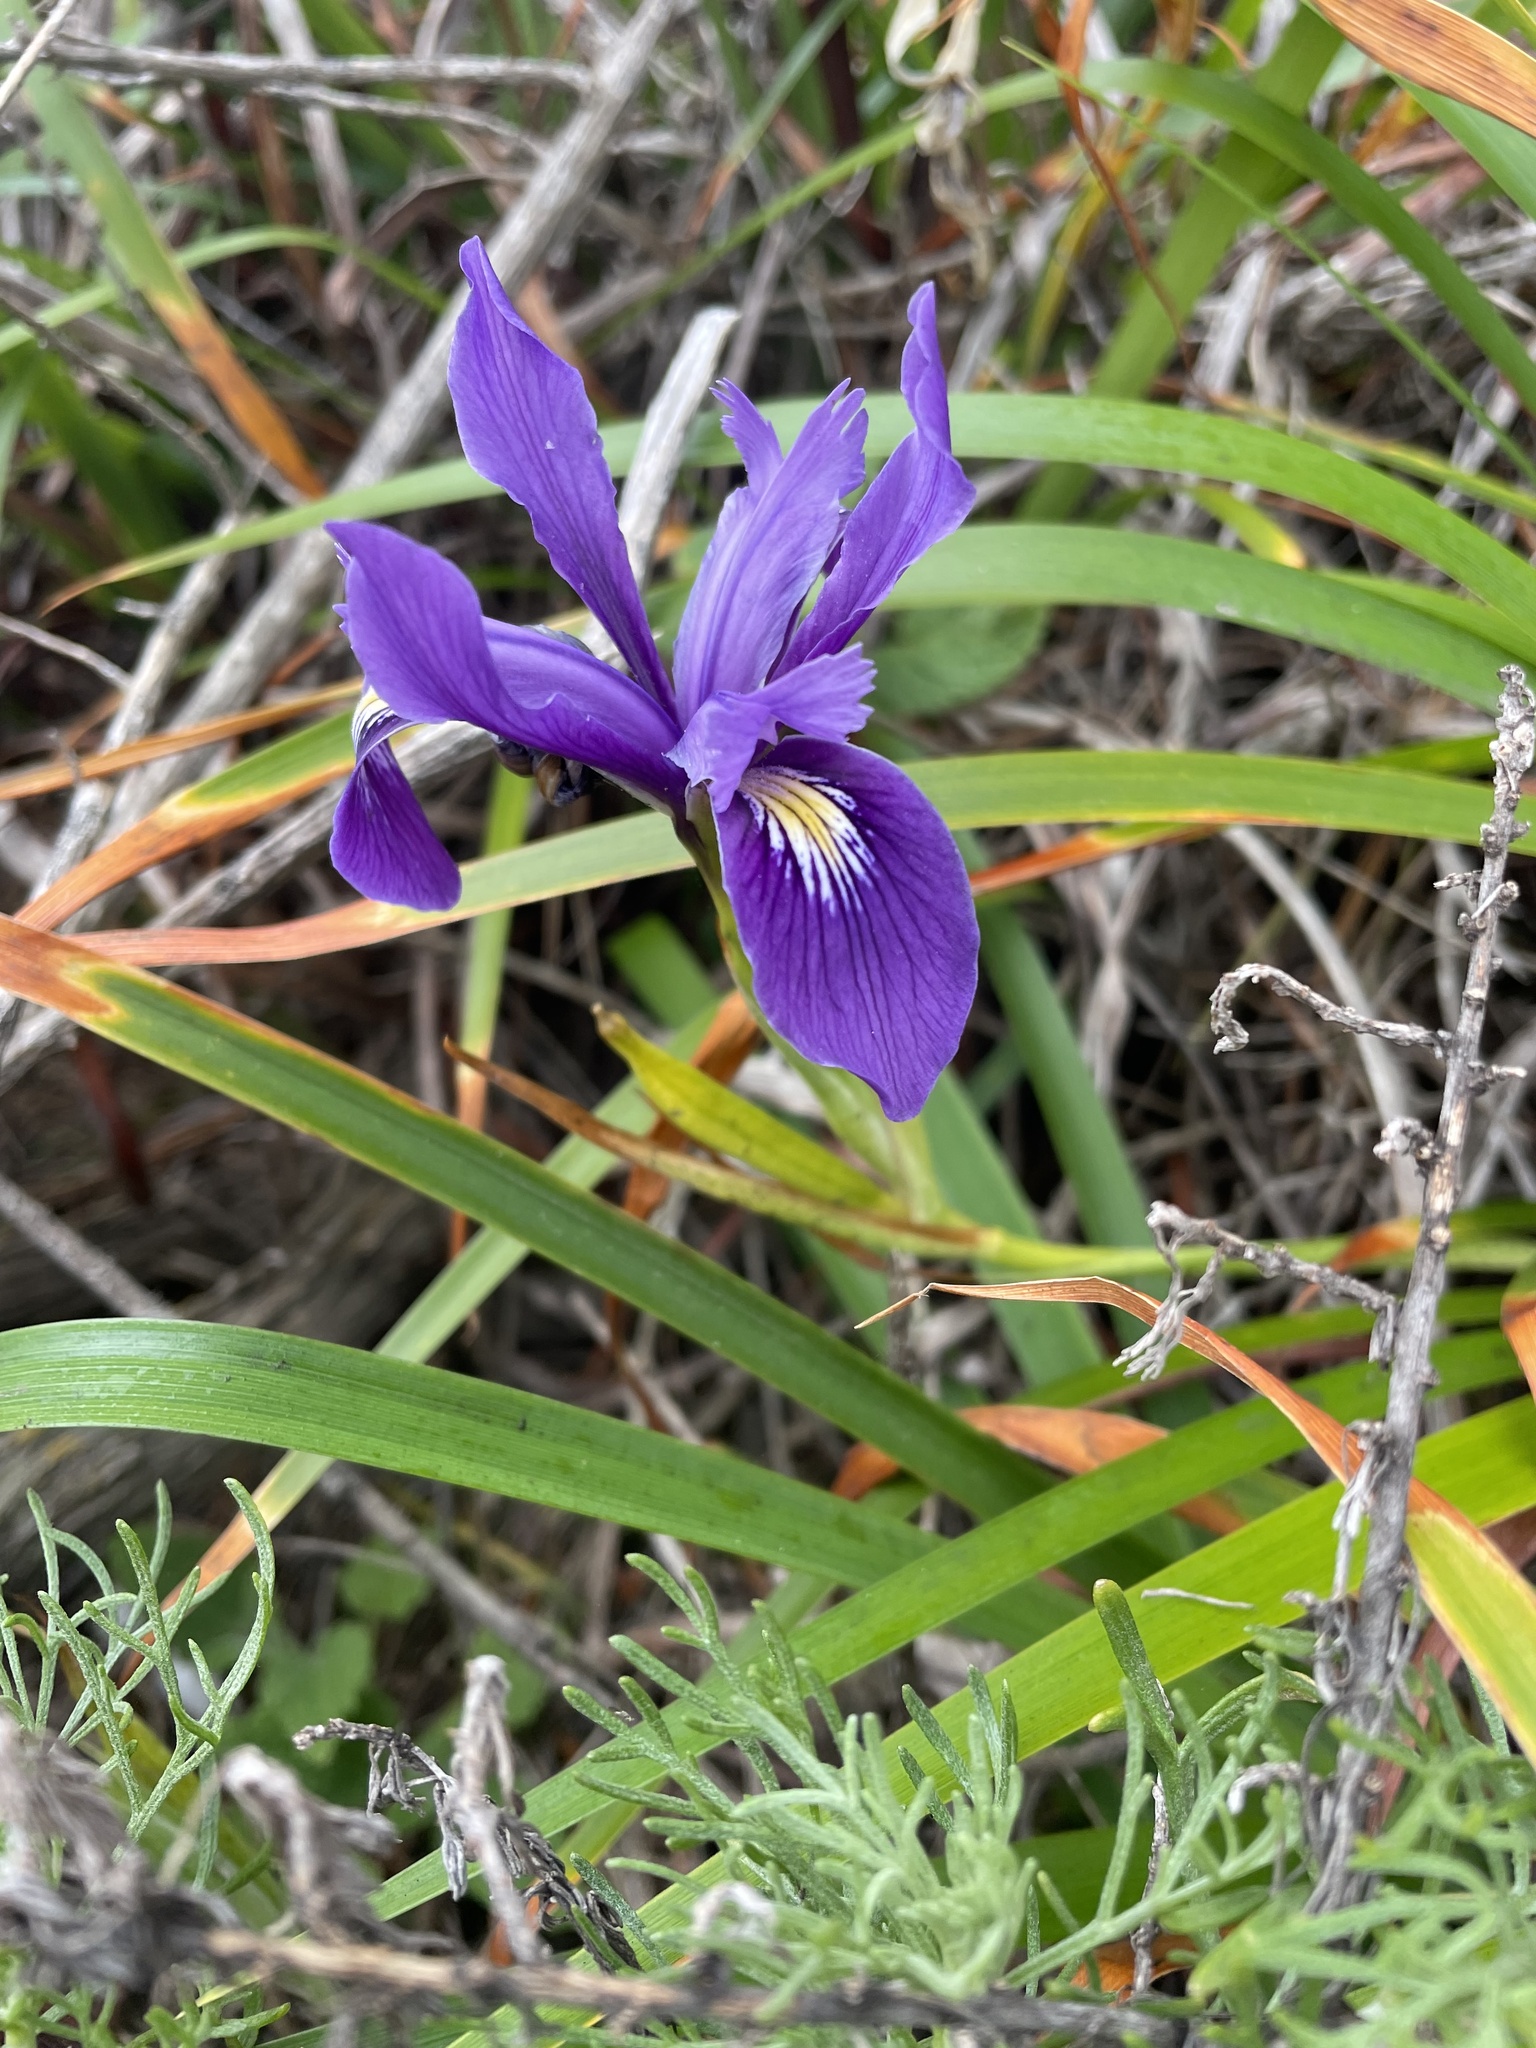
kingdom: Plantae
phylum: Tracheophyta
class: Liliopsida
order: Asparagales
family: Iridaceae
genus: Iris
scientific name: Iris douglasiana
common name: Marin iris
